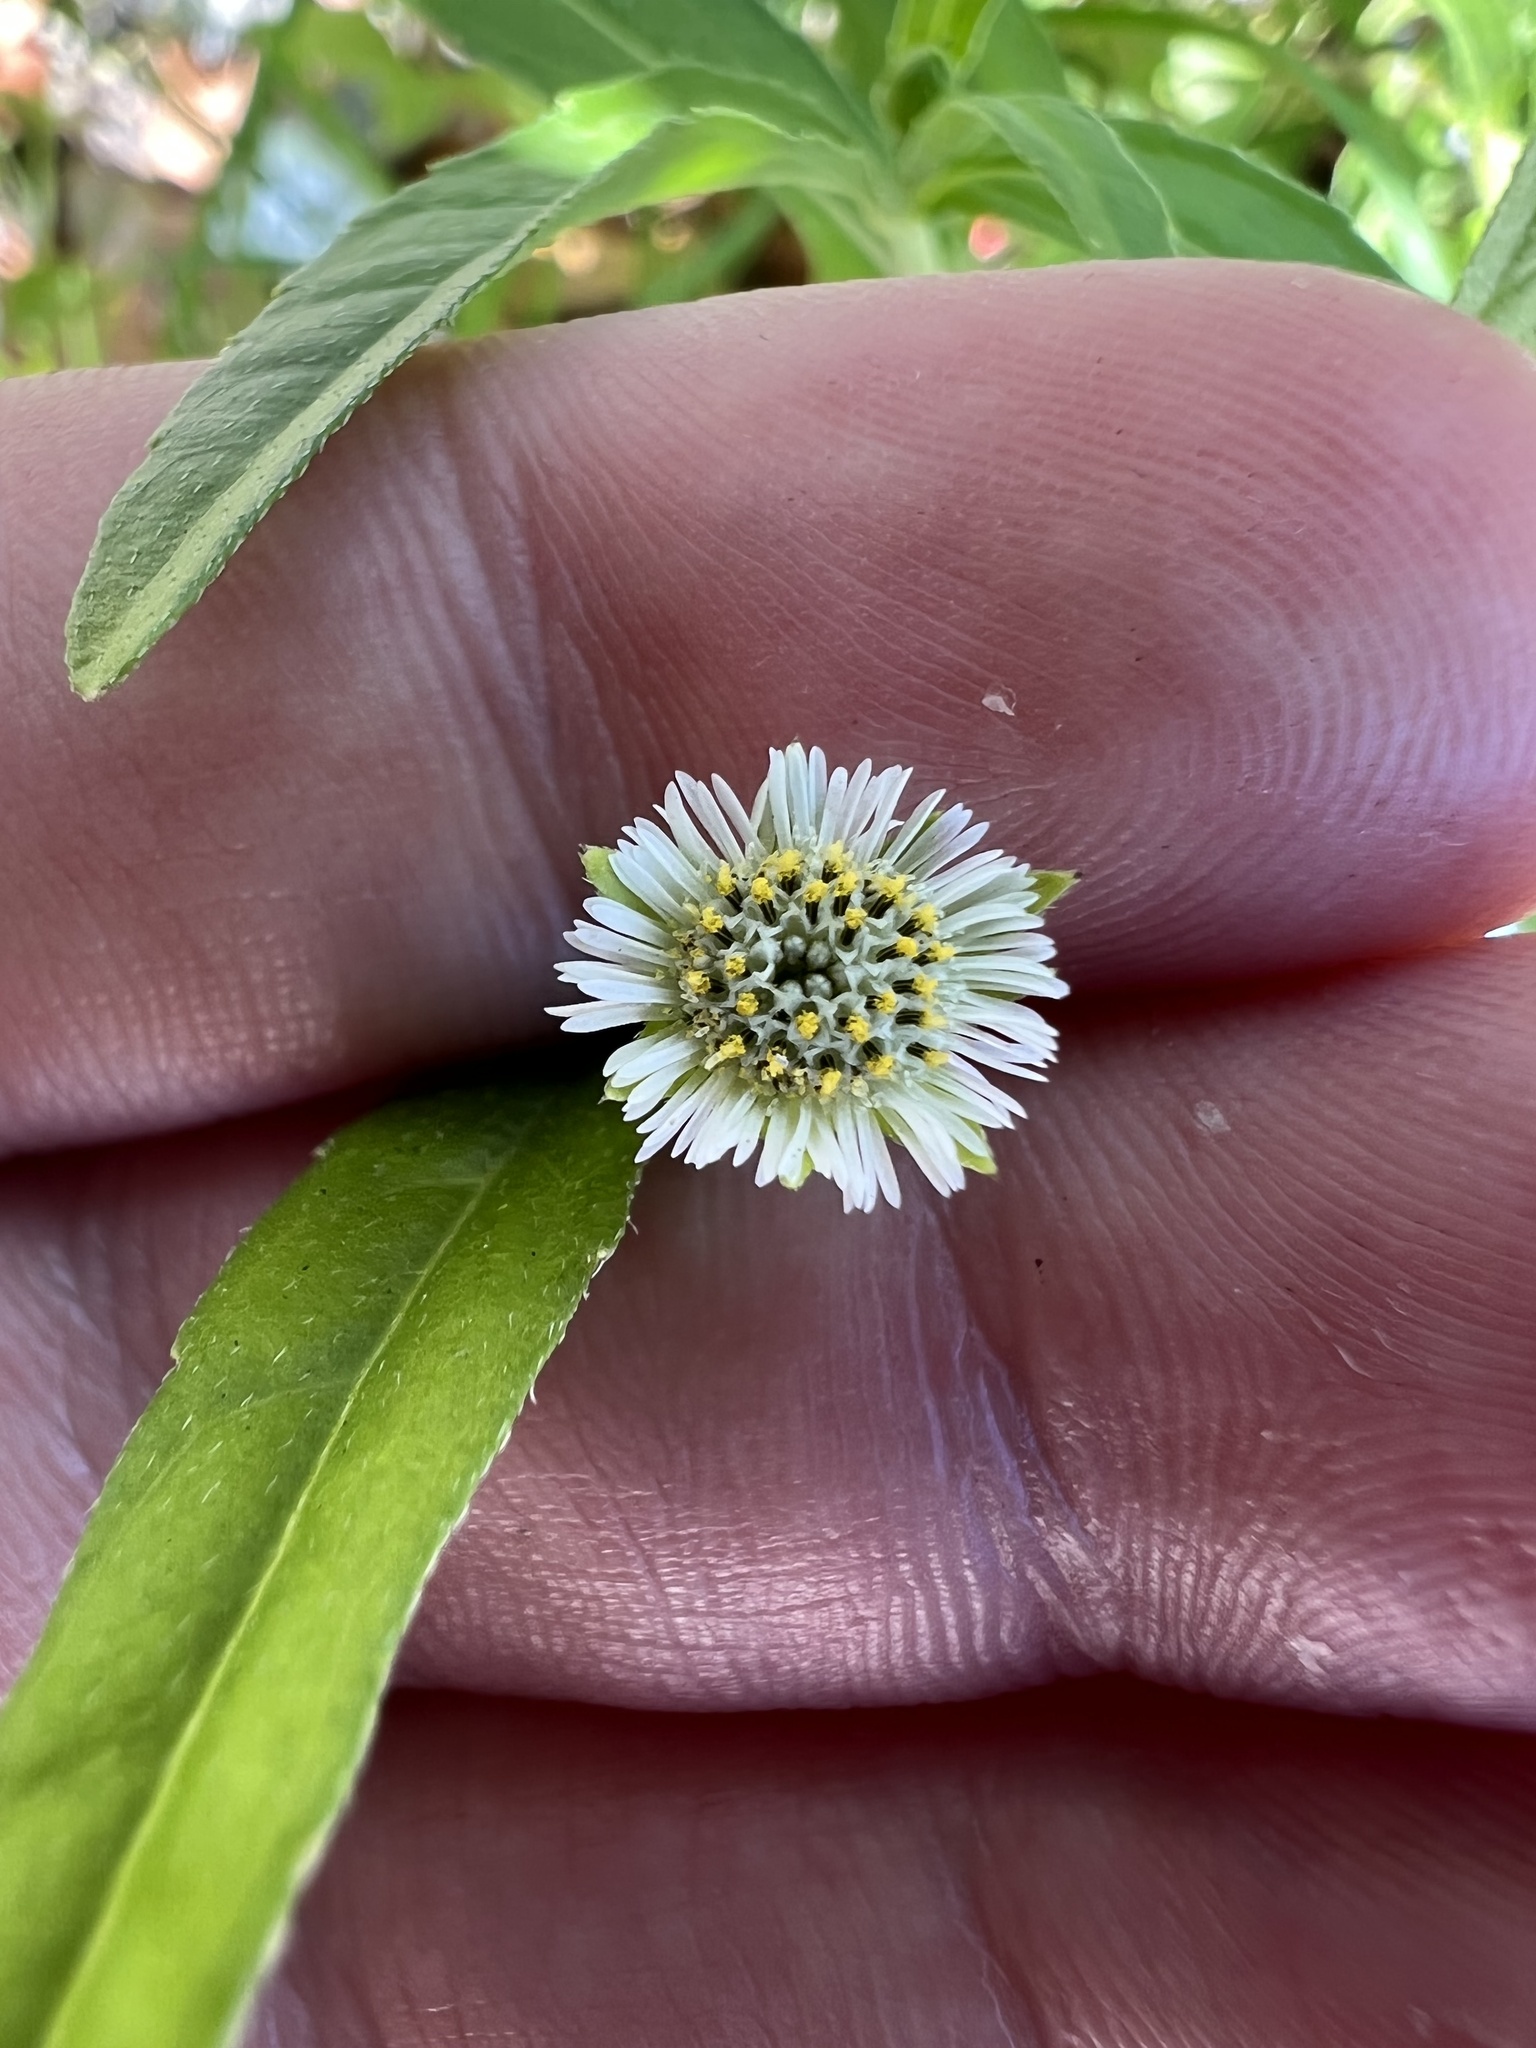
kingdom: Plantae
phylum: Tracheophyta
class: Magnoliopsida
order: Asterales
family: Asteraceae
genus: Eclipta
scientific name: Eclipta prostrata
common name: False daisy
